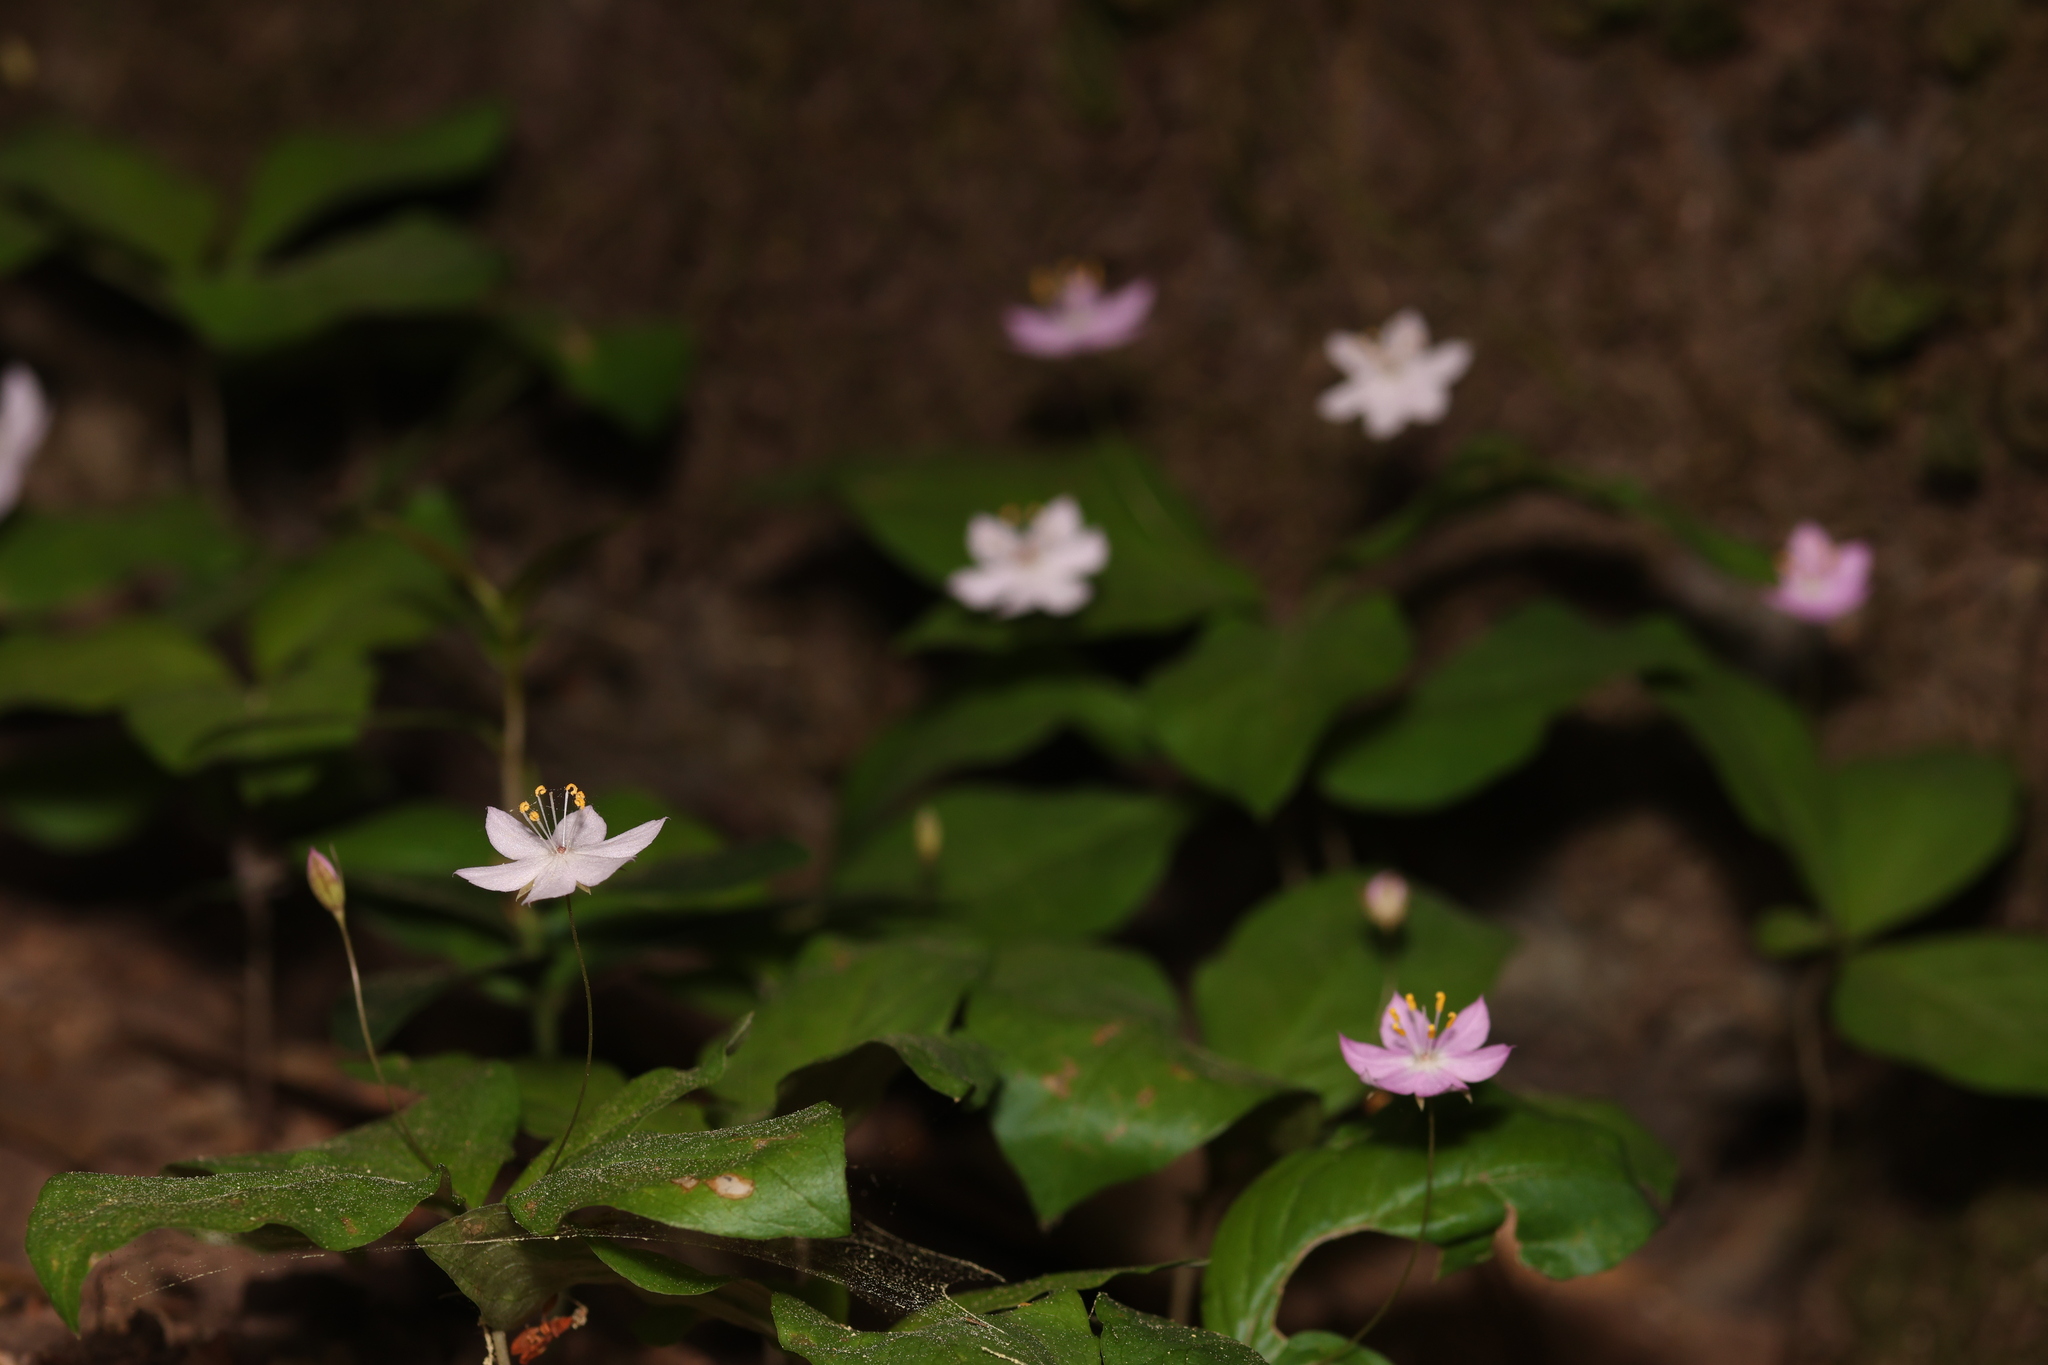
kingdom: Plantae
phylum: Tracheophyta
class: Magnoliopsida
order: Ericales
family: Primulaceae
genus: Lysimachia
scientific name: Lysimachia latifolia
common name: Pacific starflower
